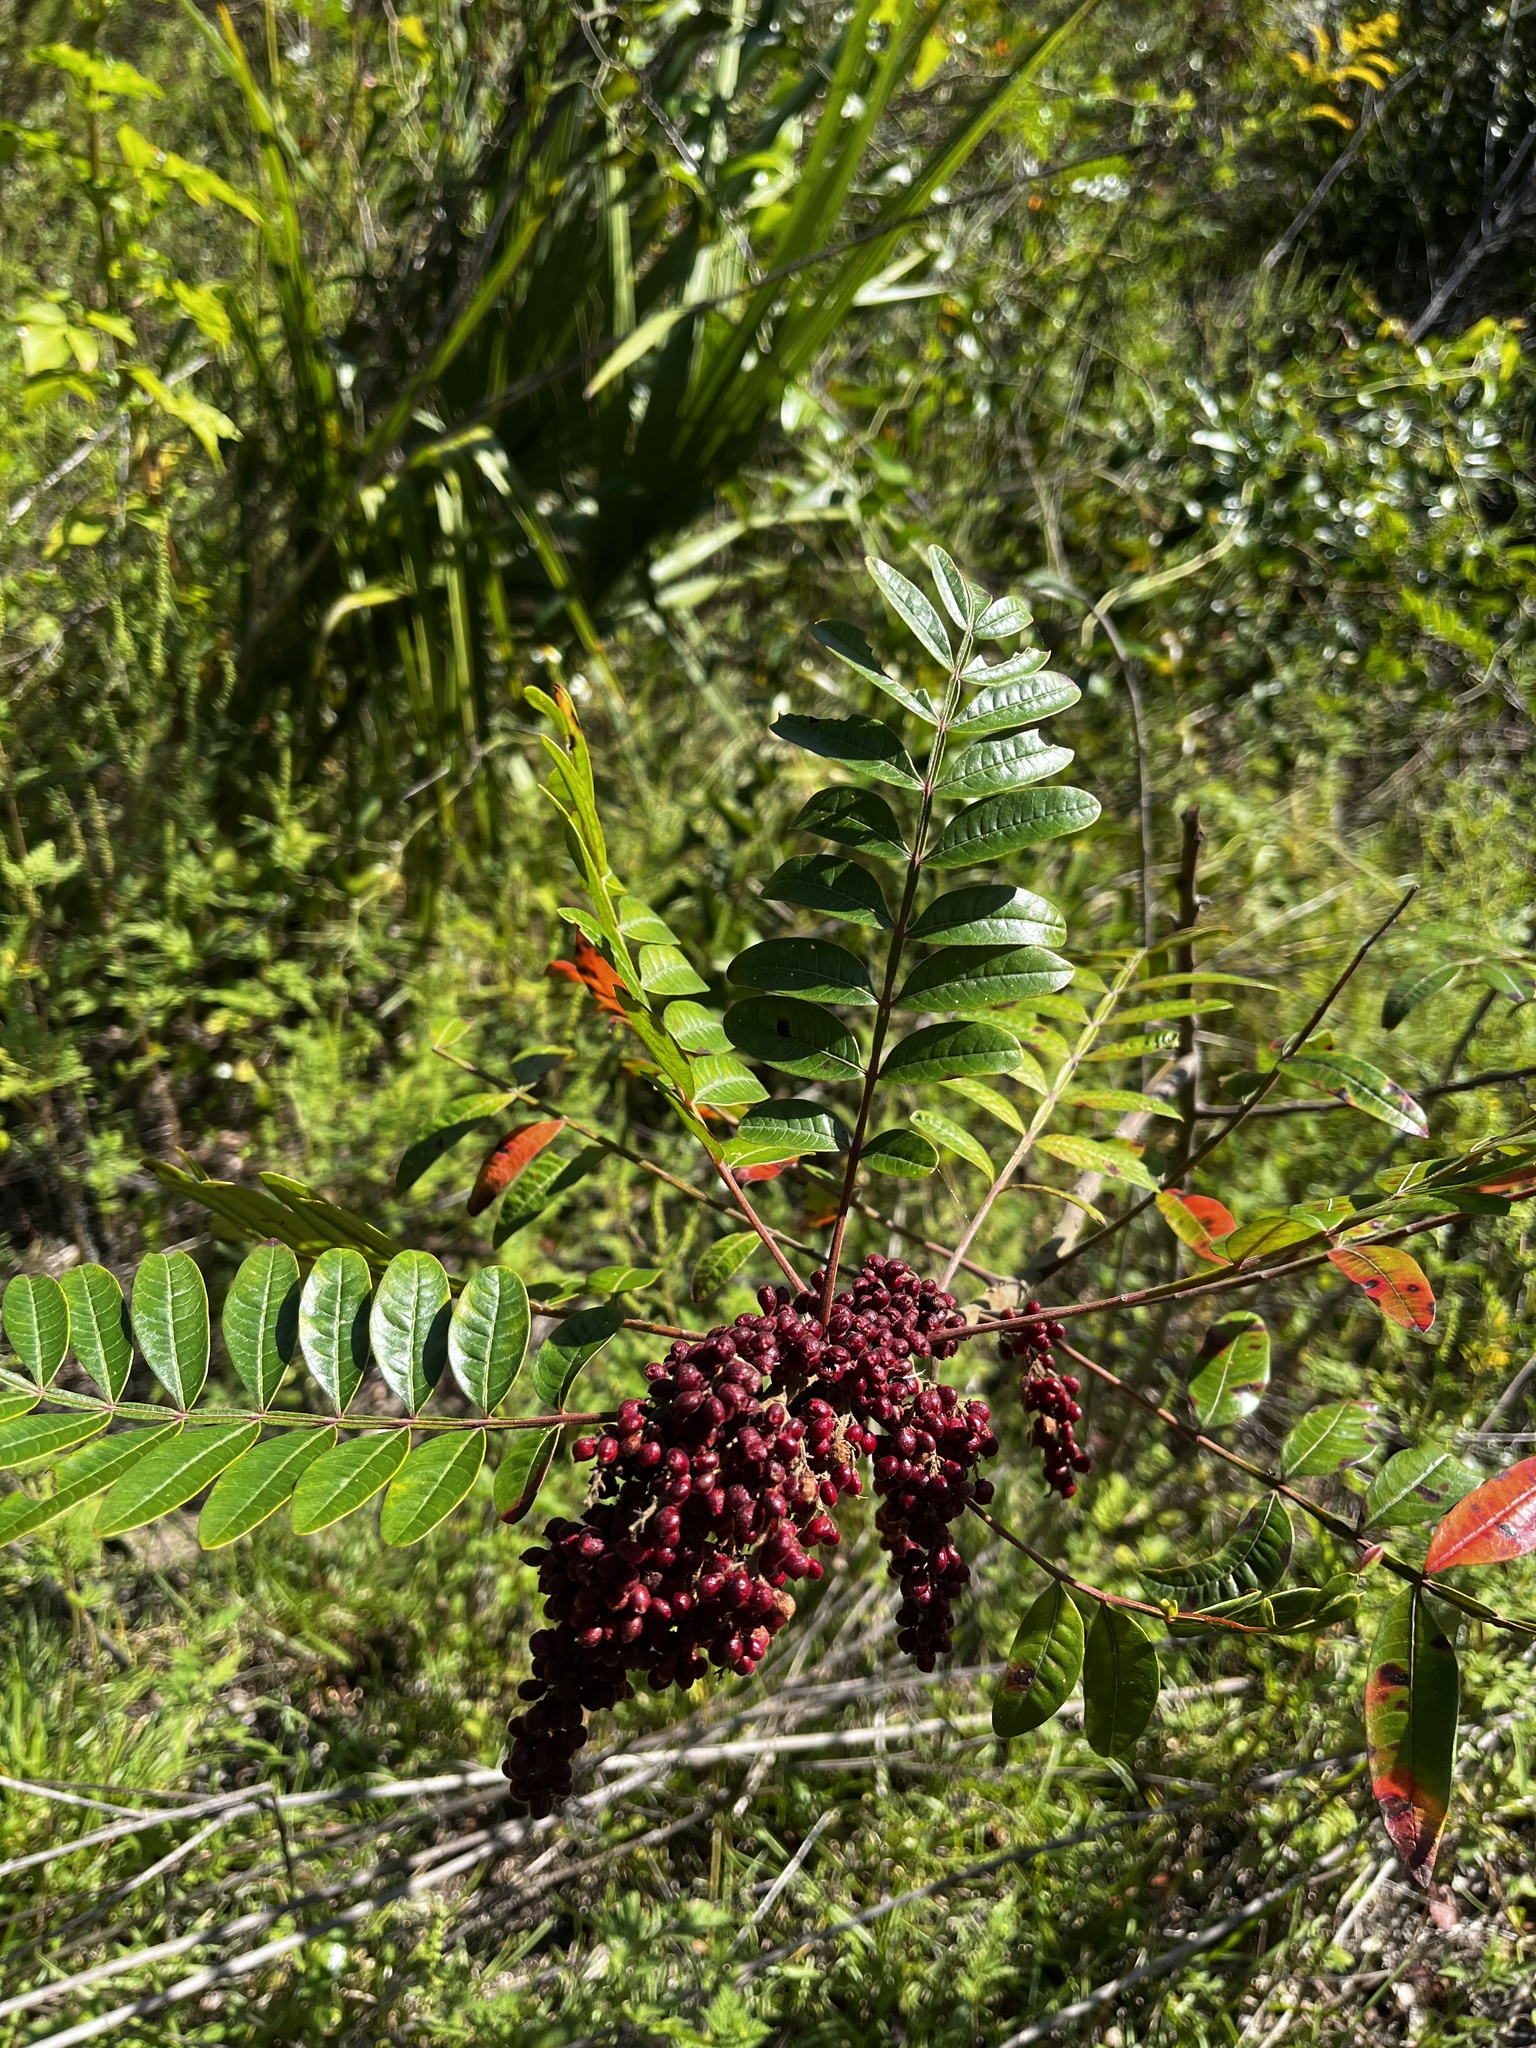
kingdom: Plantae
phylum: Tracheophyta
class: Magnoliopsida
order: Sapindales
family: Anacardiaceae
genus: Rhus
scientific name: Rhus copallina
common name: Shining sumac
